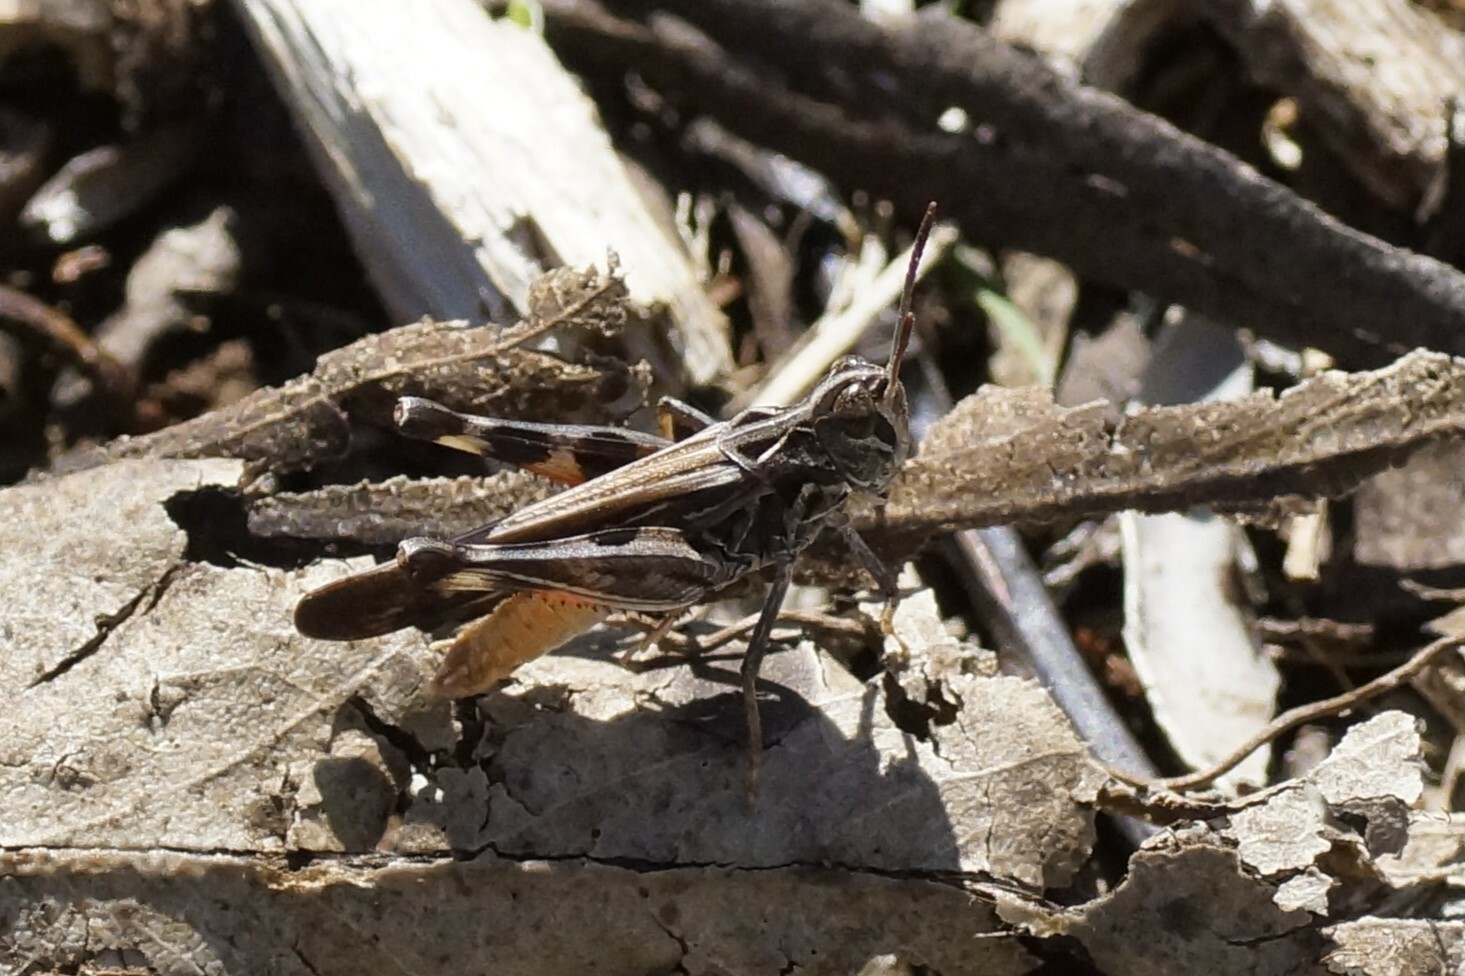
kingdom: Animalia
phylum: Arthropoda
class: Insecta
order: Orthoptera
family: Acrididae
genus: Austroicetes
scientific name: Austroicetes vulgaris
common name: Southeastern austroicetes
